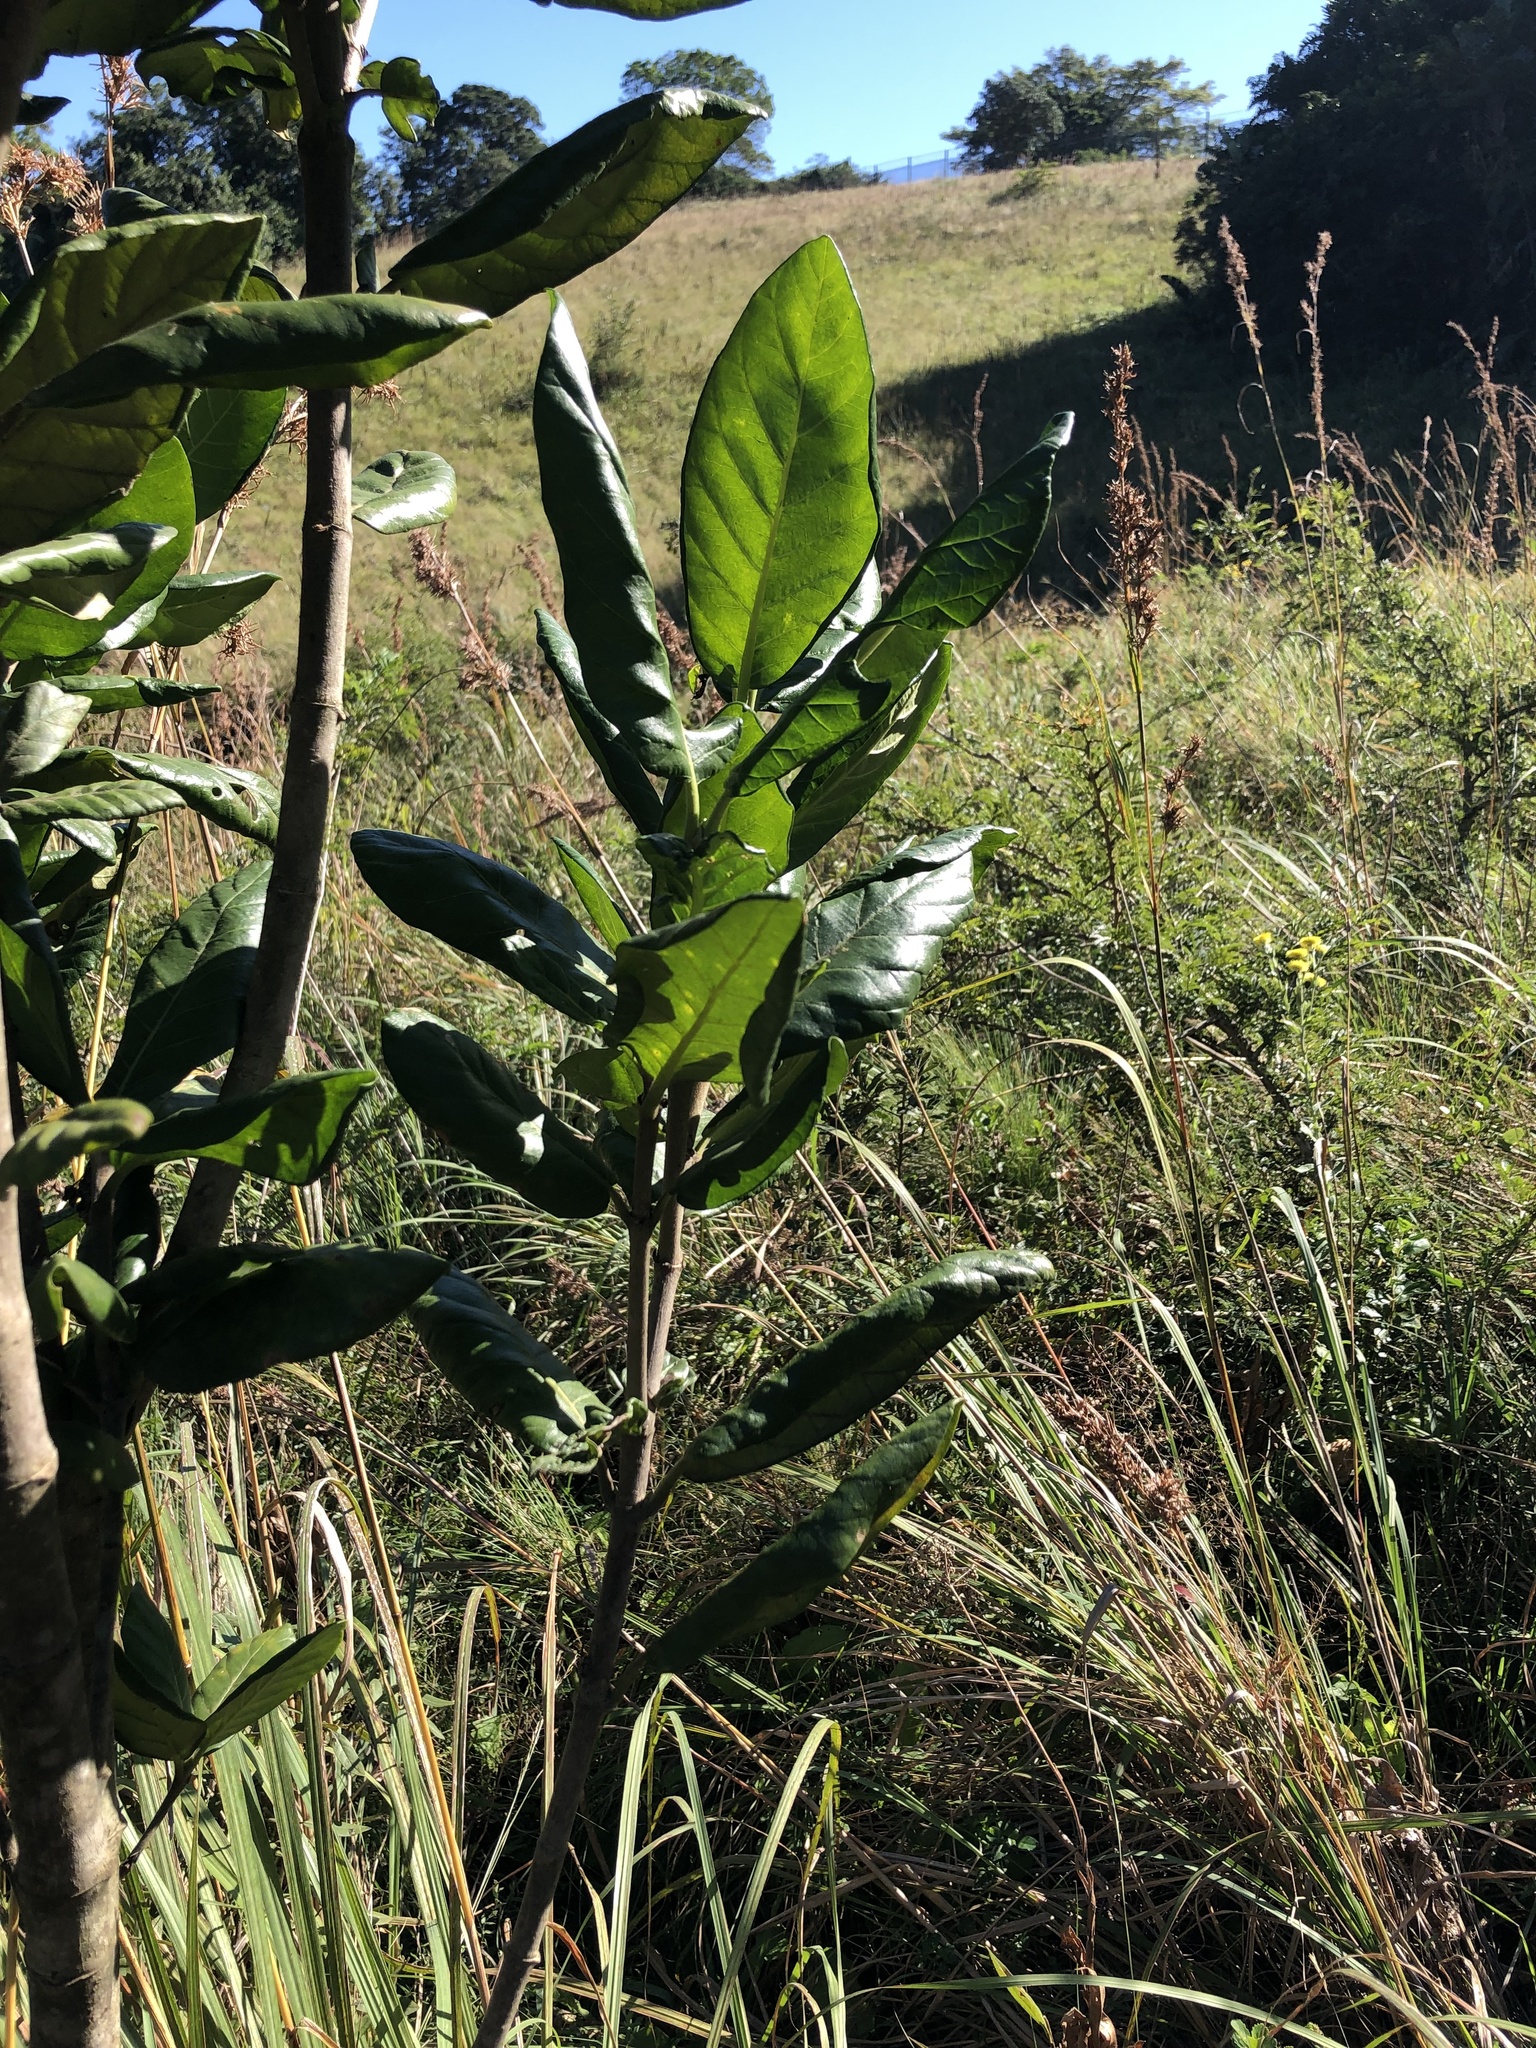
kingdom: Plantae
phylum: Tracheophyta
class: Magnoliopsida
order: Gentianales
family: Rubiaceae
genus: Burchellia
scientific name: Burchellia bubalina
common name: Wild pomegranate
